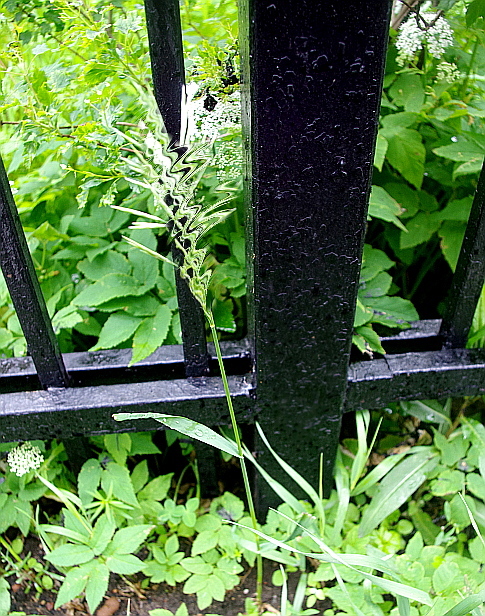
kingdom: Plantae
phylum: Tracheophyta
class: Magnoliopsida
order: Apiales
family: Apiaceae
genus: Aegopodium
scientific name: Aegopodium podagraria
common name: Ground-elder
